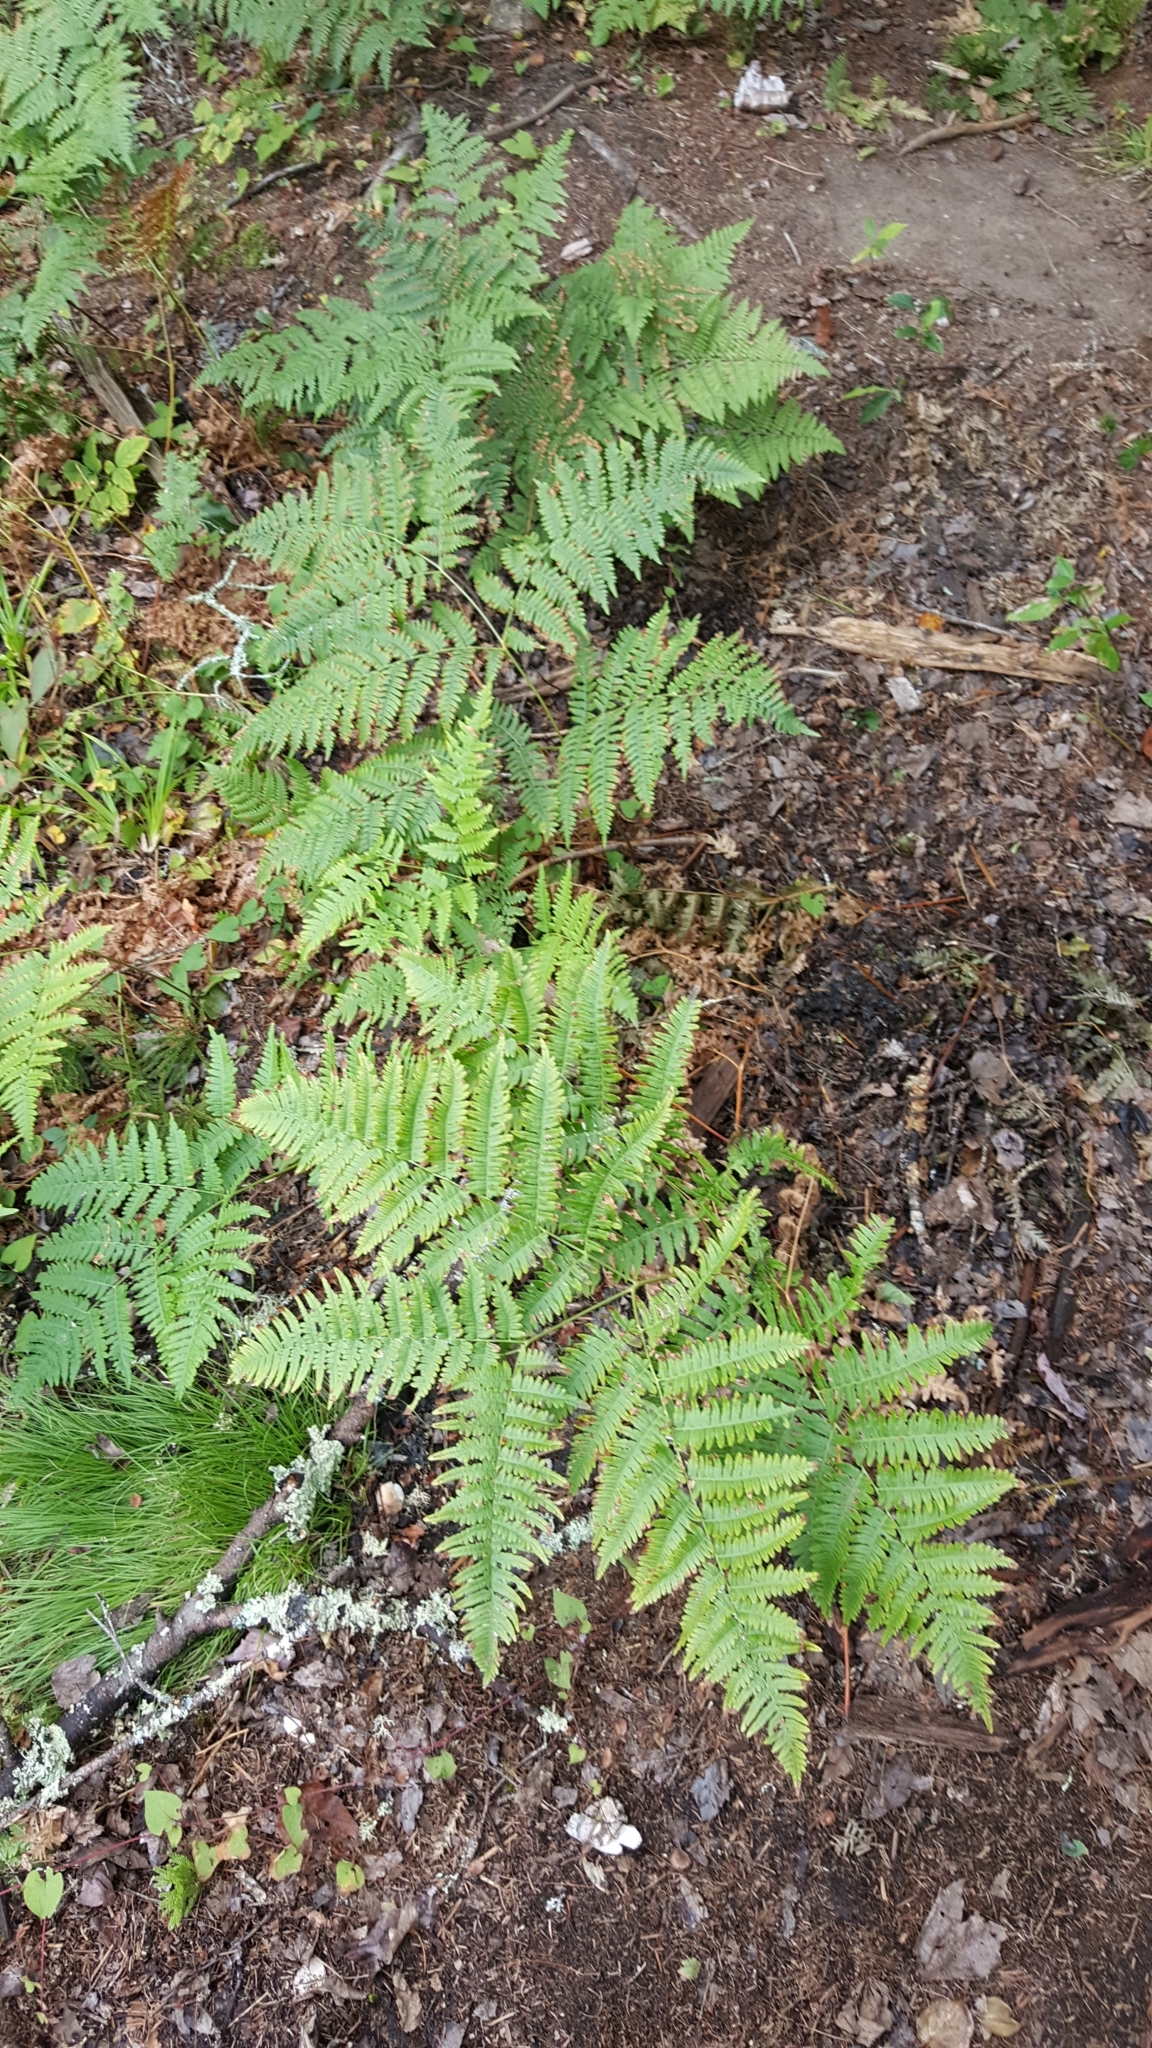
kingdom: Plantae
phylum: Tracheophyta
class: Polypodiopsida
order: Polypodiales
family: Dennstaedtiaceae
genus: Pteridium
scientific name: Pteridium aquilinum
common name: Bracken
